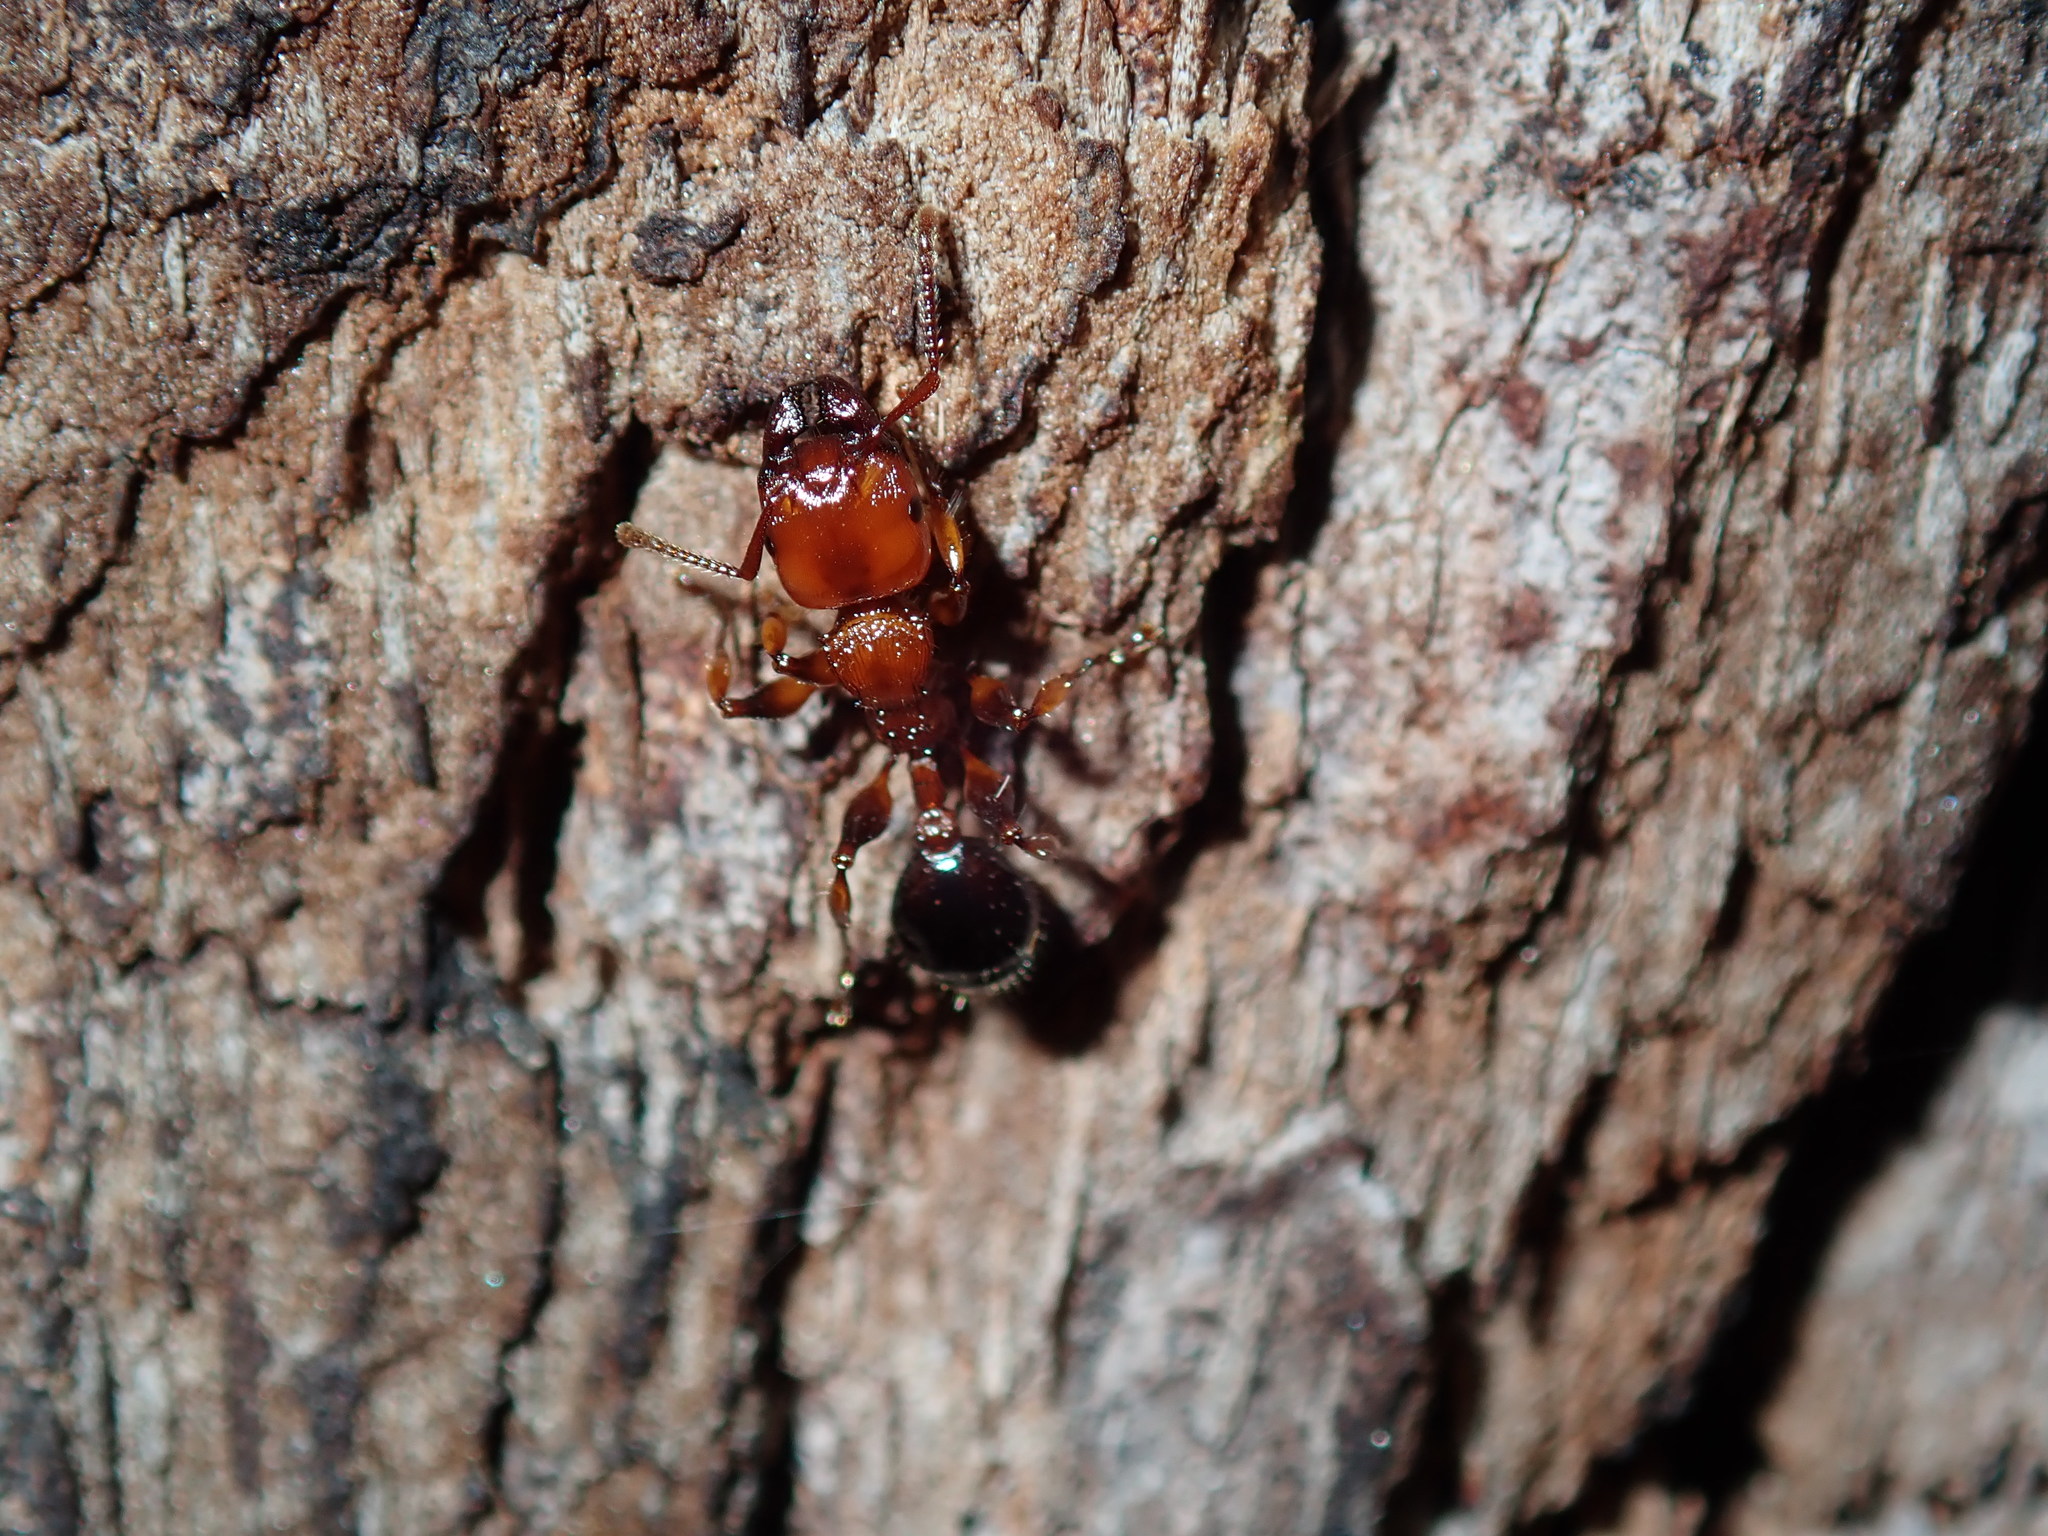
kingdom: Animalia
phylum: Arthropoda
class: Insecta
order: Hymenoptera
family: Formicidae
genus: Podomyrma
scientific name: Podomyrma gratiosa
